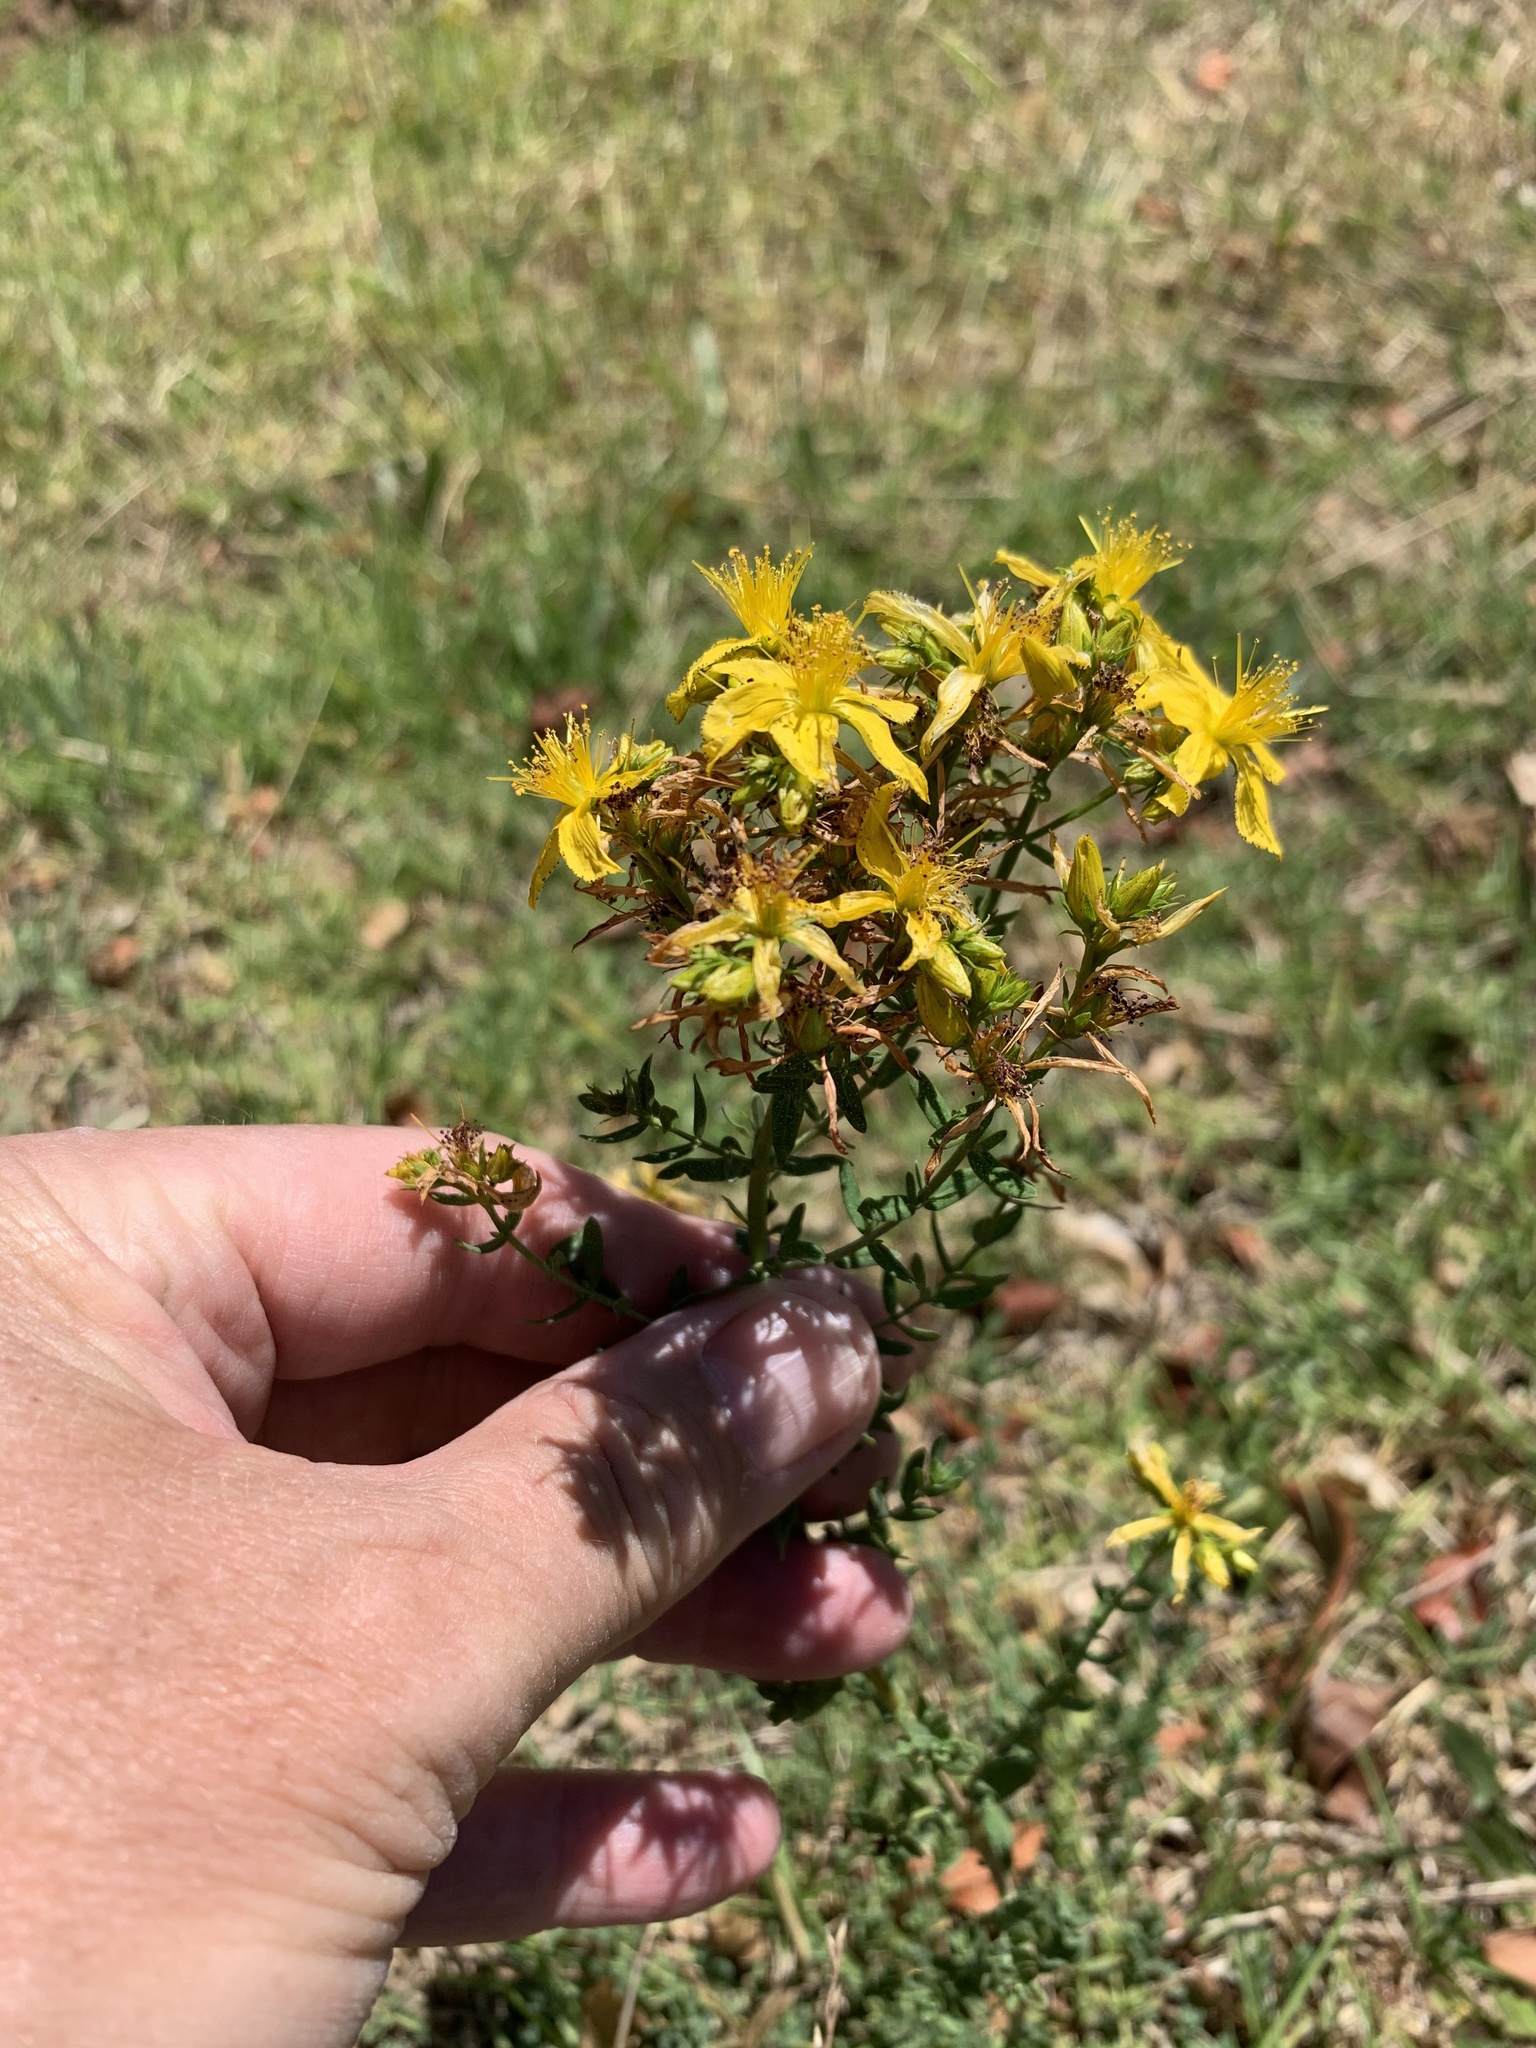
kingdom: Plantae
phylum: Tracheophyta
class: Magnoliopsida
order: Malpighiales
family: Hypericaceae
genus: Hypericum
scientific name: Hypericum perforatum
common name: Common st. johnswort
